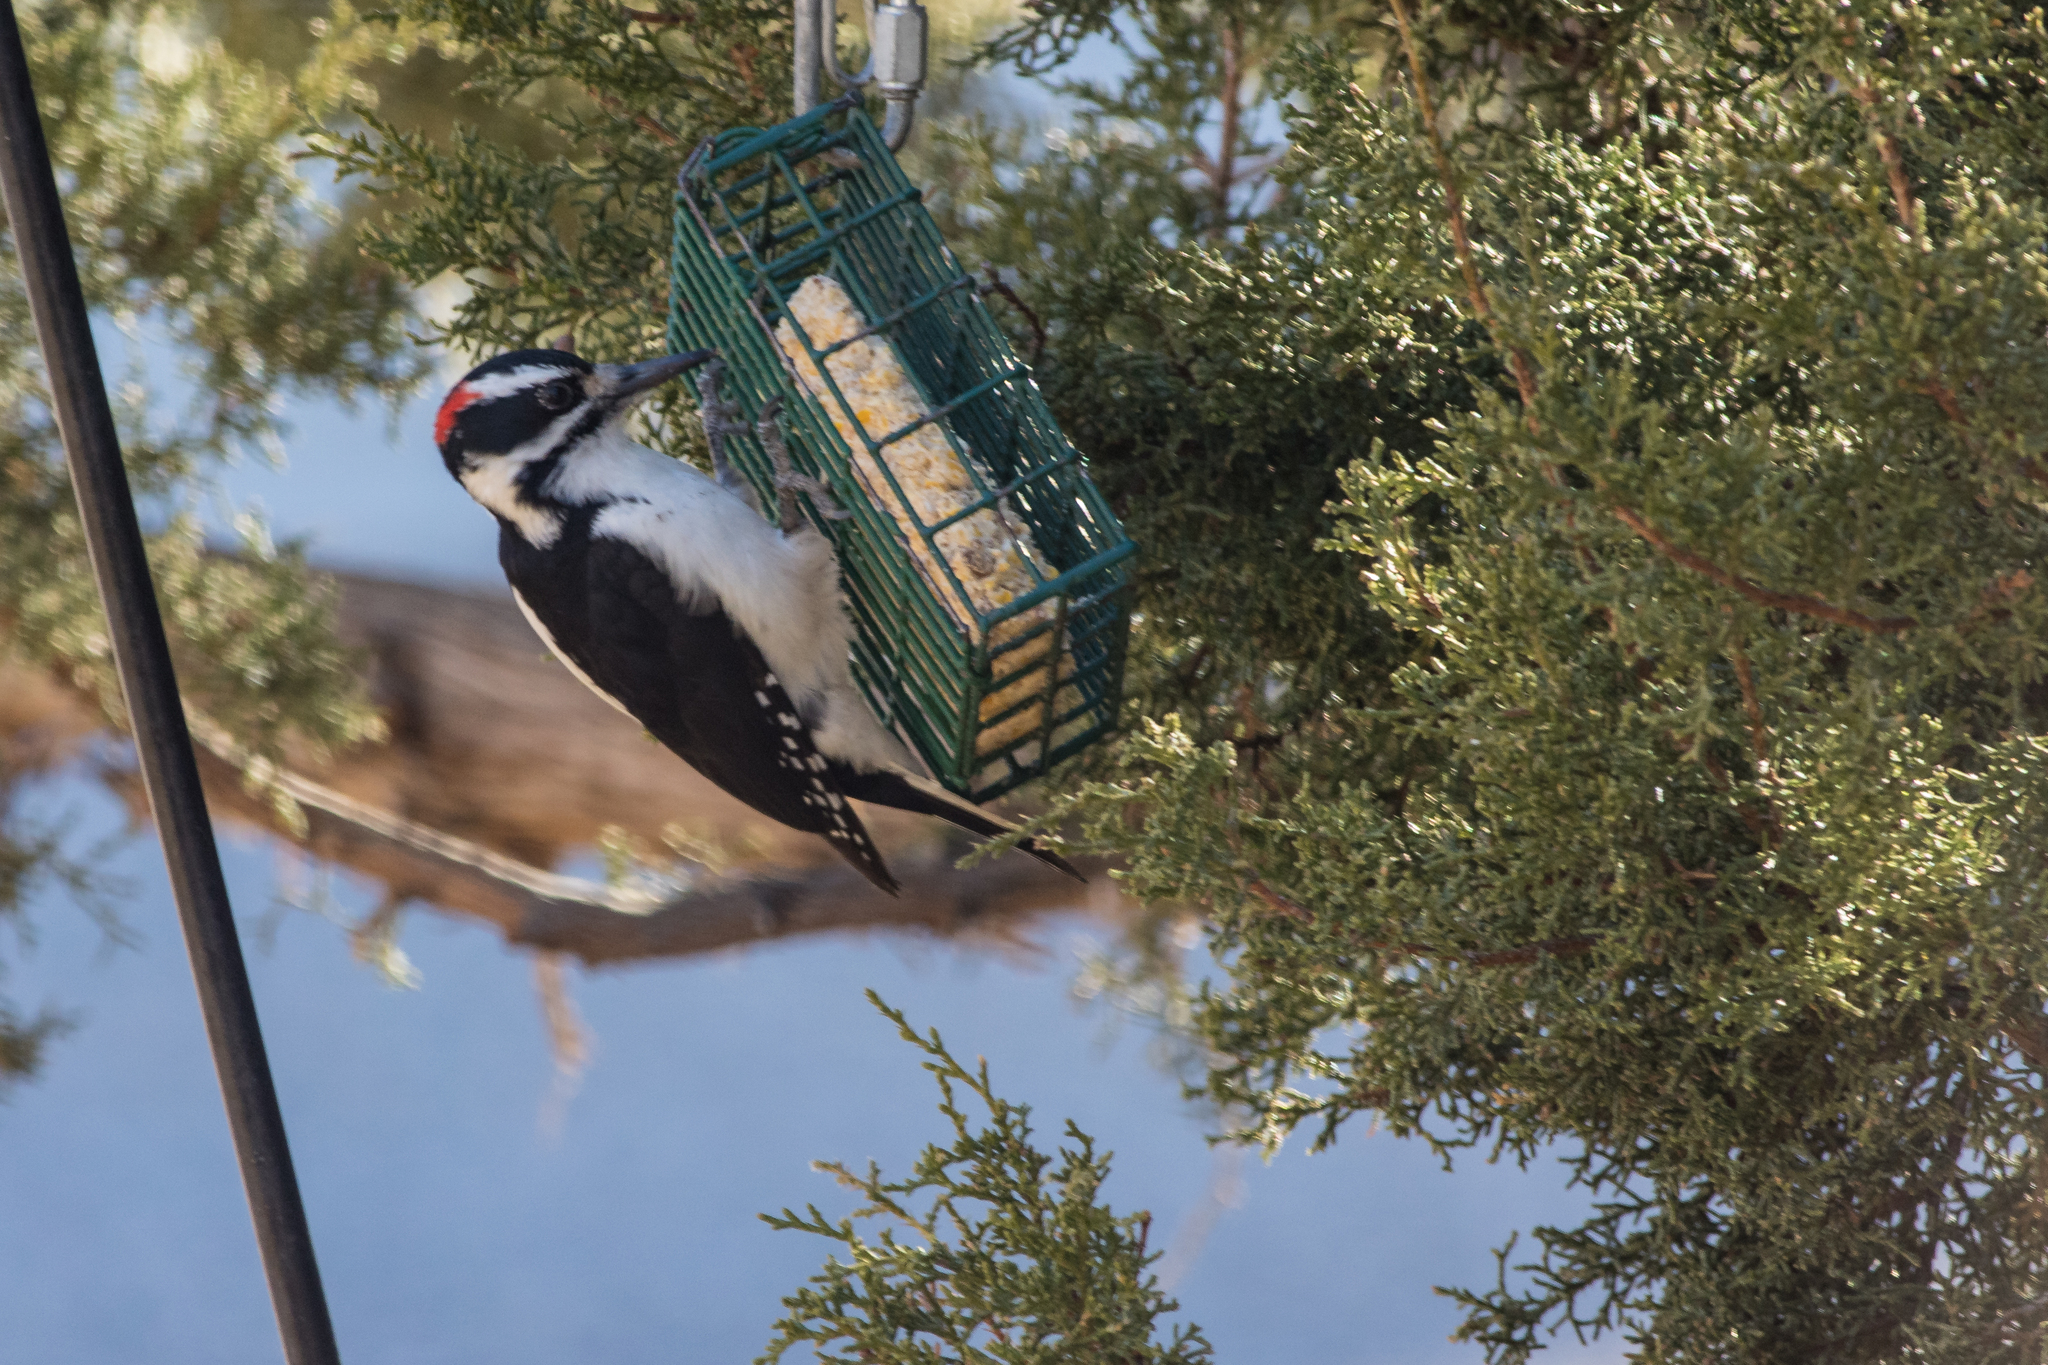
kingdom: Animalia
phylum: Chordata
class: Aves
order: Piciformes
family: Picidae
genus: Leuconotopicus
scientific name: Leuconotopicus villosus
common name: Hairy woodpecker
